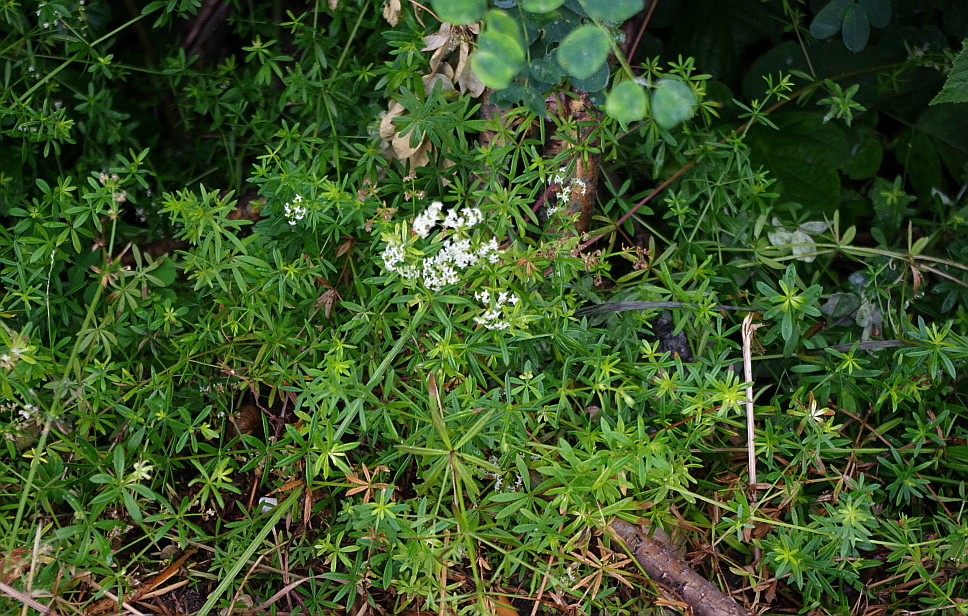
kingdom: Plantae
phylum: Tracheophyta
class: Magnoliopsida
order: Gentianales
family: Rubiaceae
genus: Galium
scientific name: Galium mollugo
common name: Hedge bedstraw
